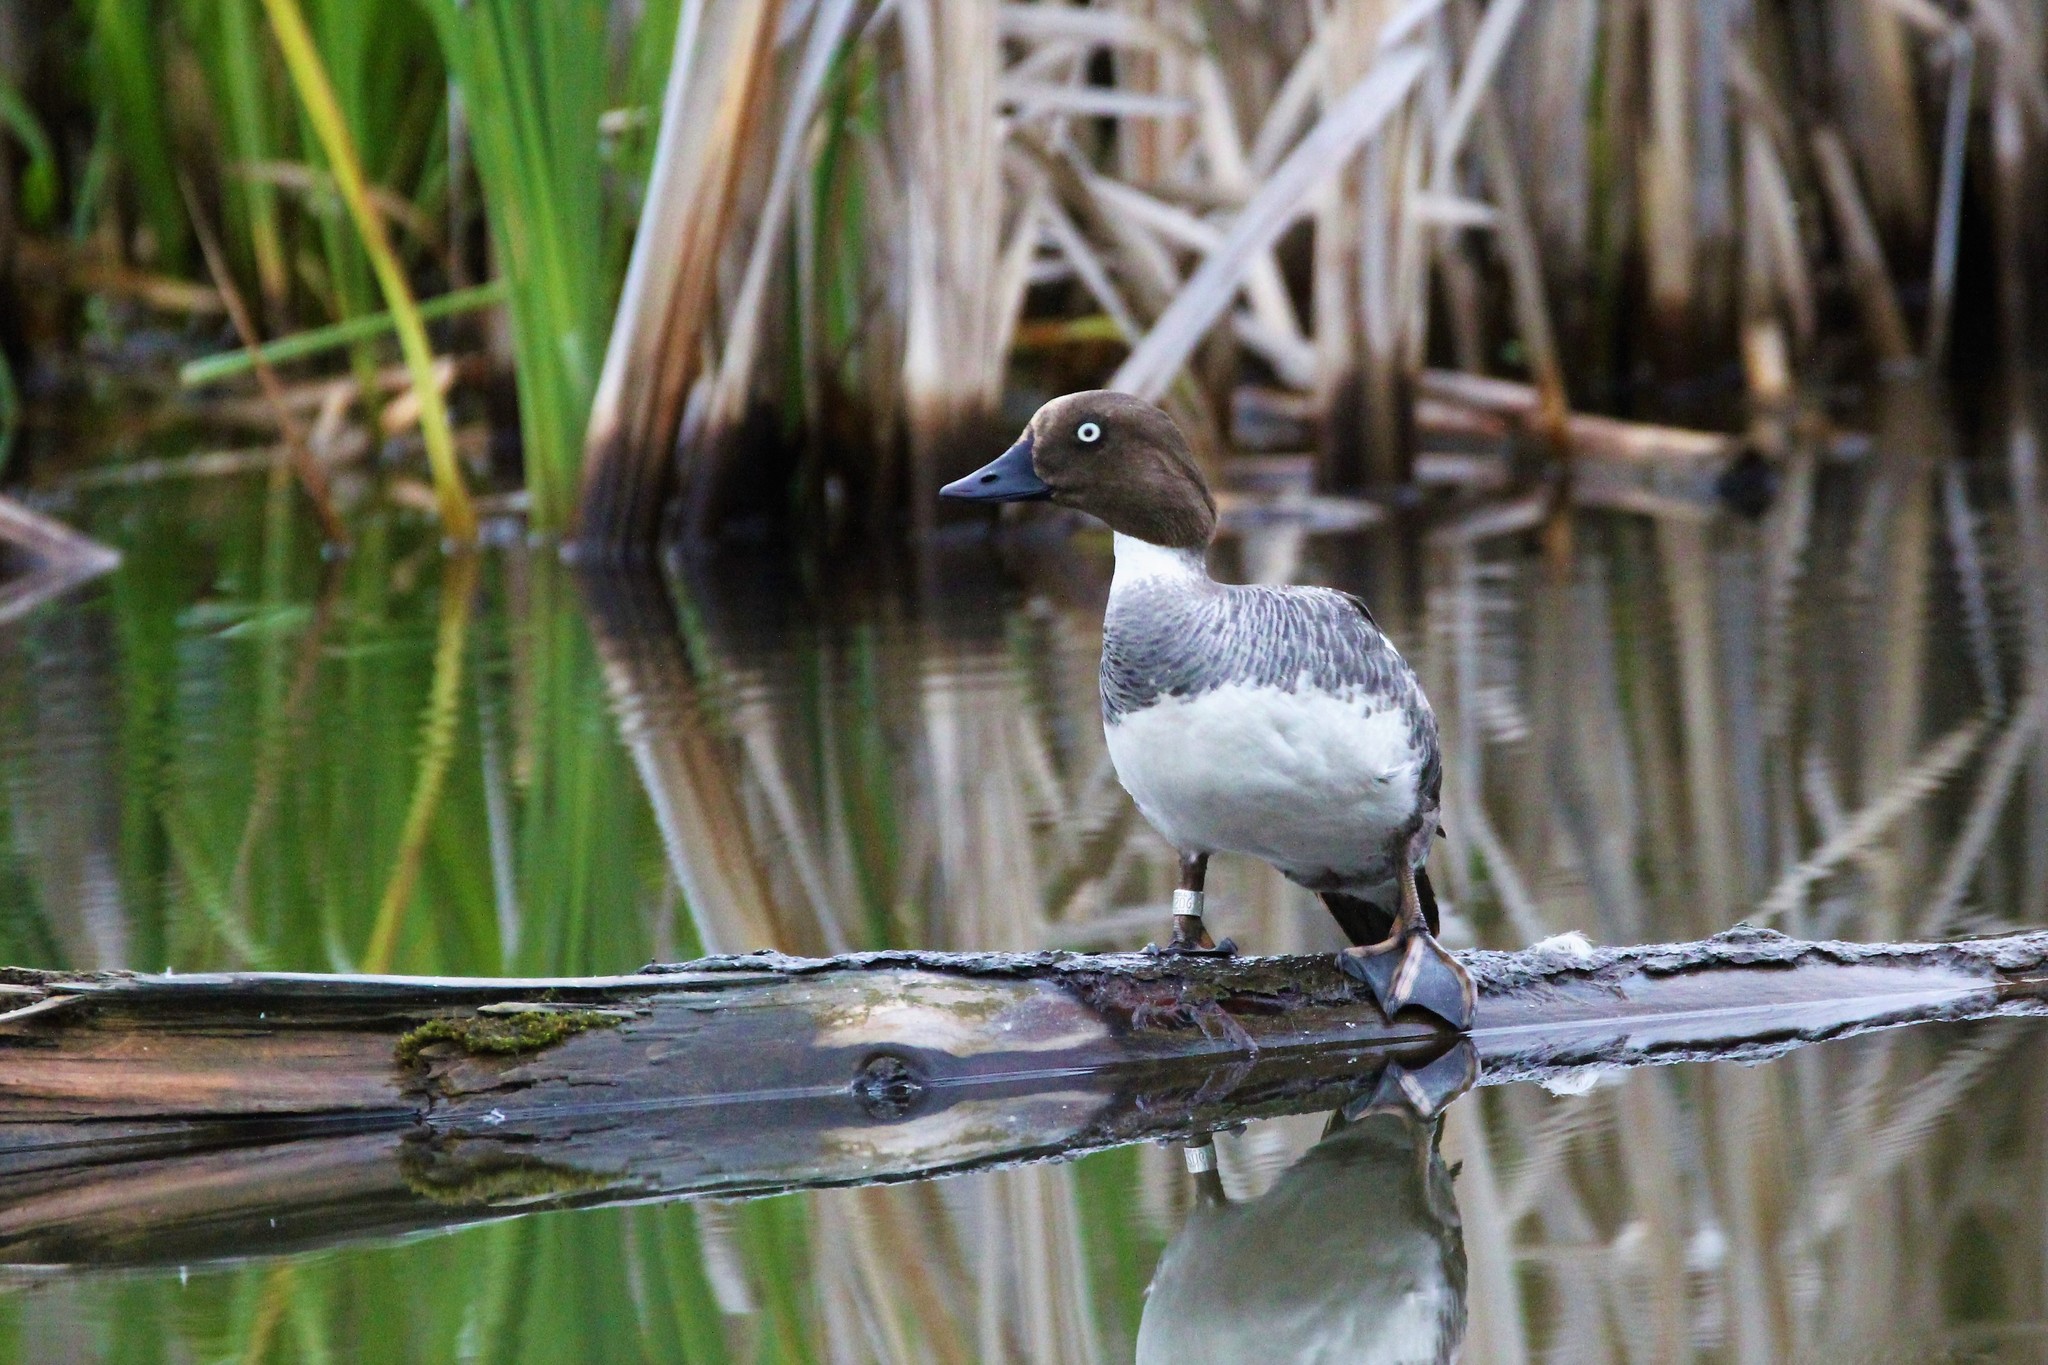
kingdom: Animalia
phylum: Chordata
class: Aves
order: Anseriformes
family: Anatidae
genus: Bucephala
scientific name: Bucephala clangula
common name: Common goldeneye
